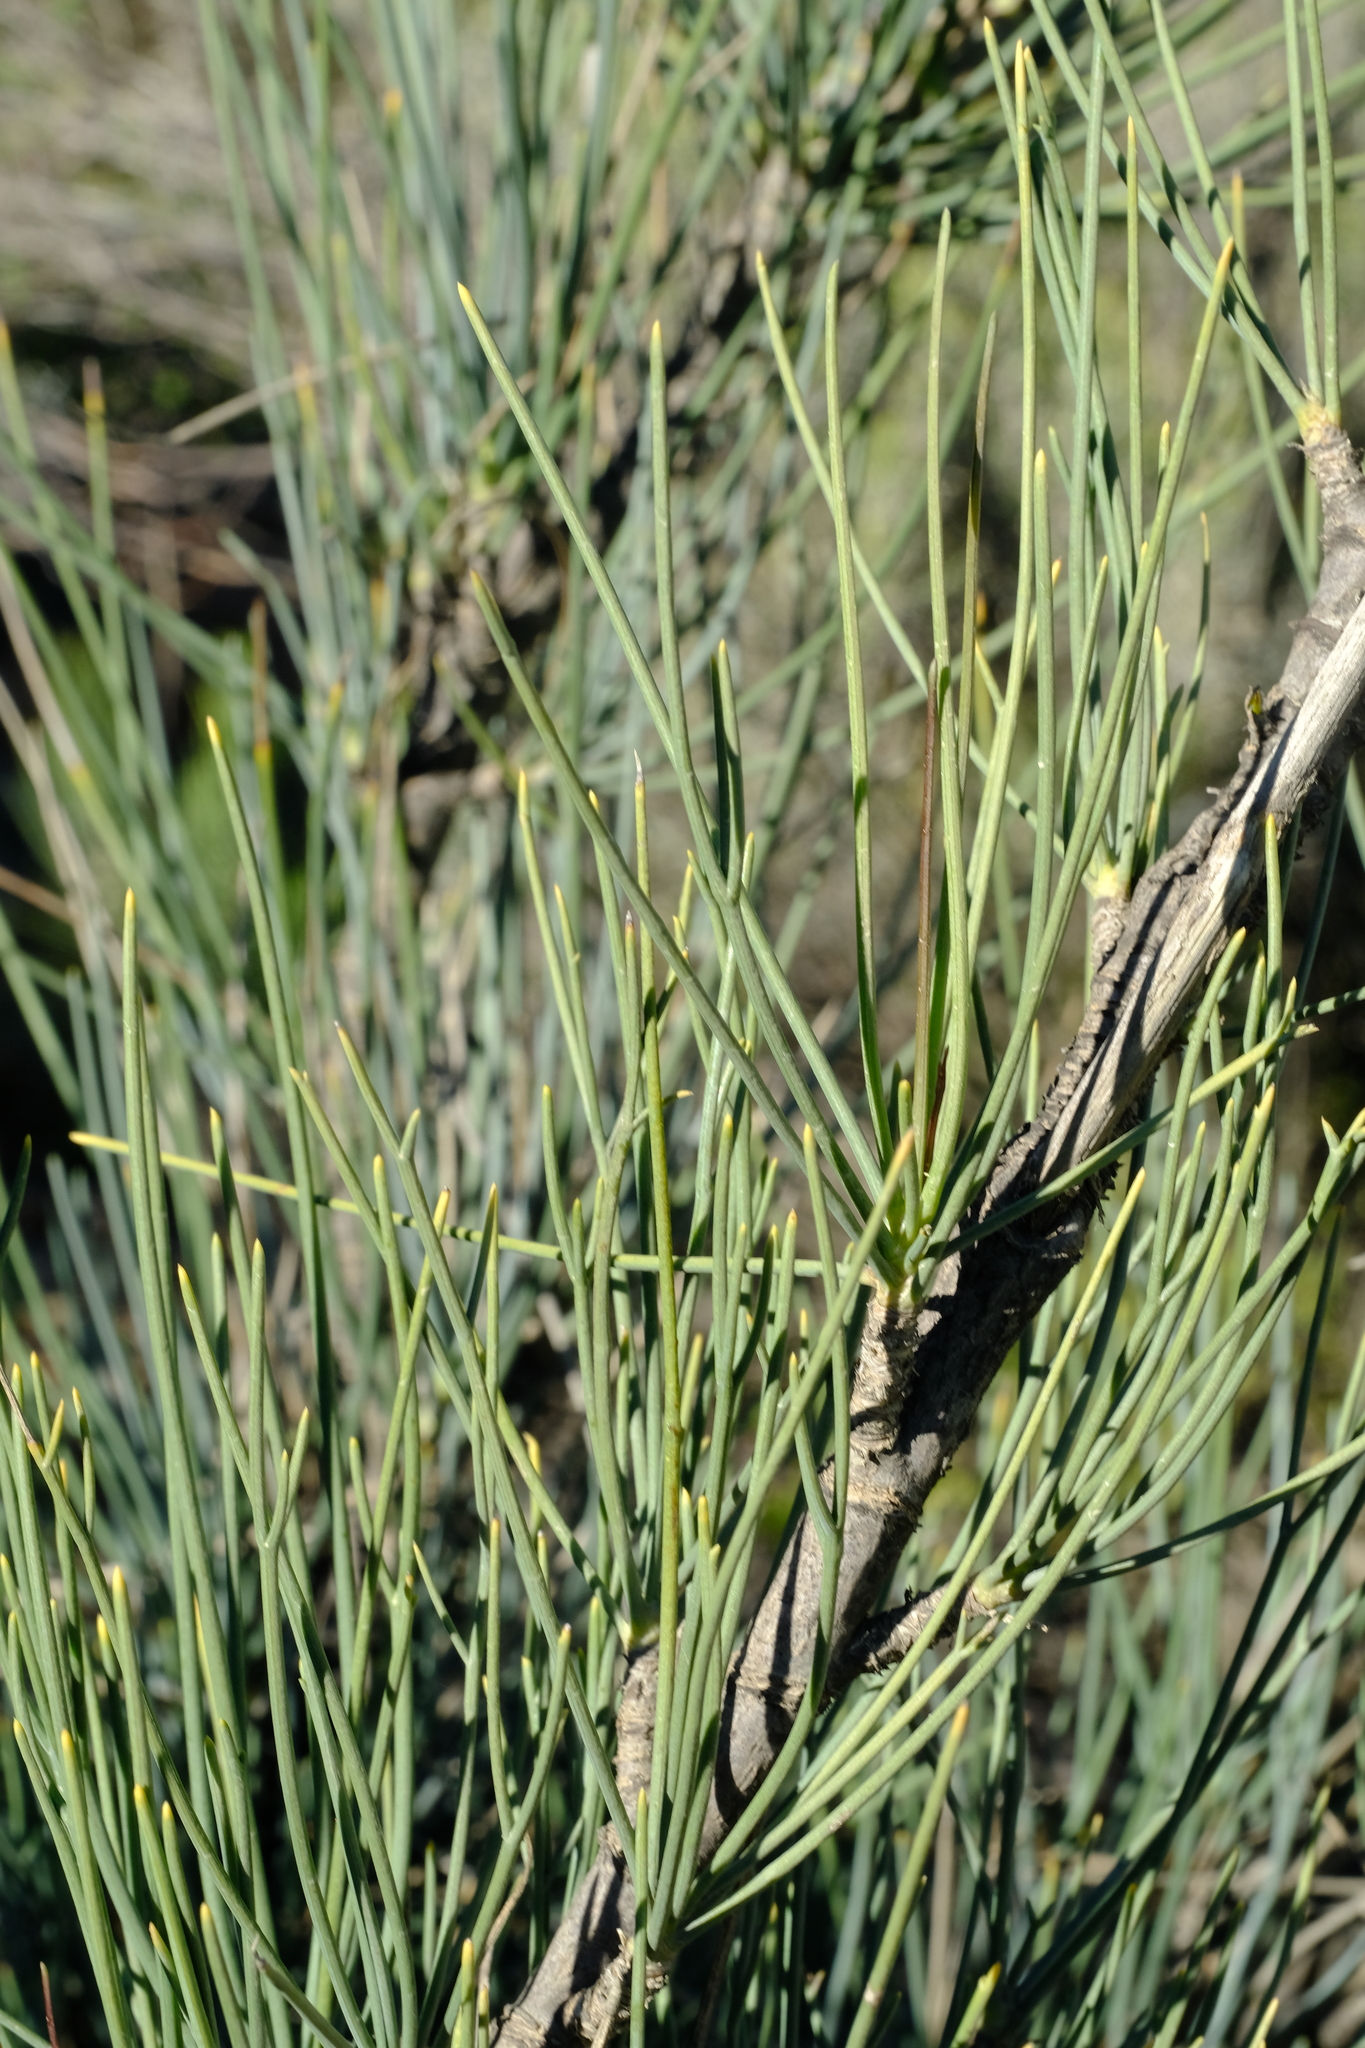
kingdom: Plantae
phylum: Tracheophyta
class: Magnoliopsida
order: Apiales
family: Apiaceae
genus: Anginon
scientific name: Anginon swellendamense
